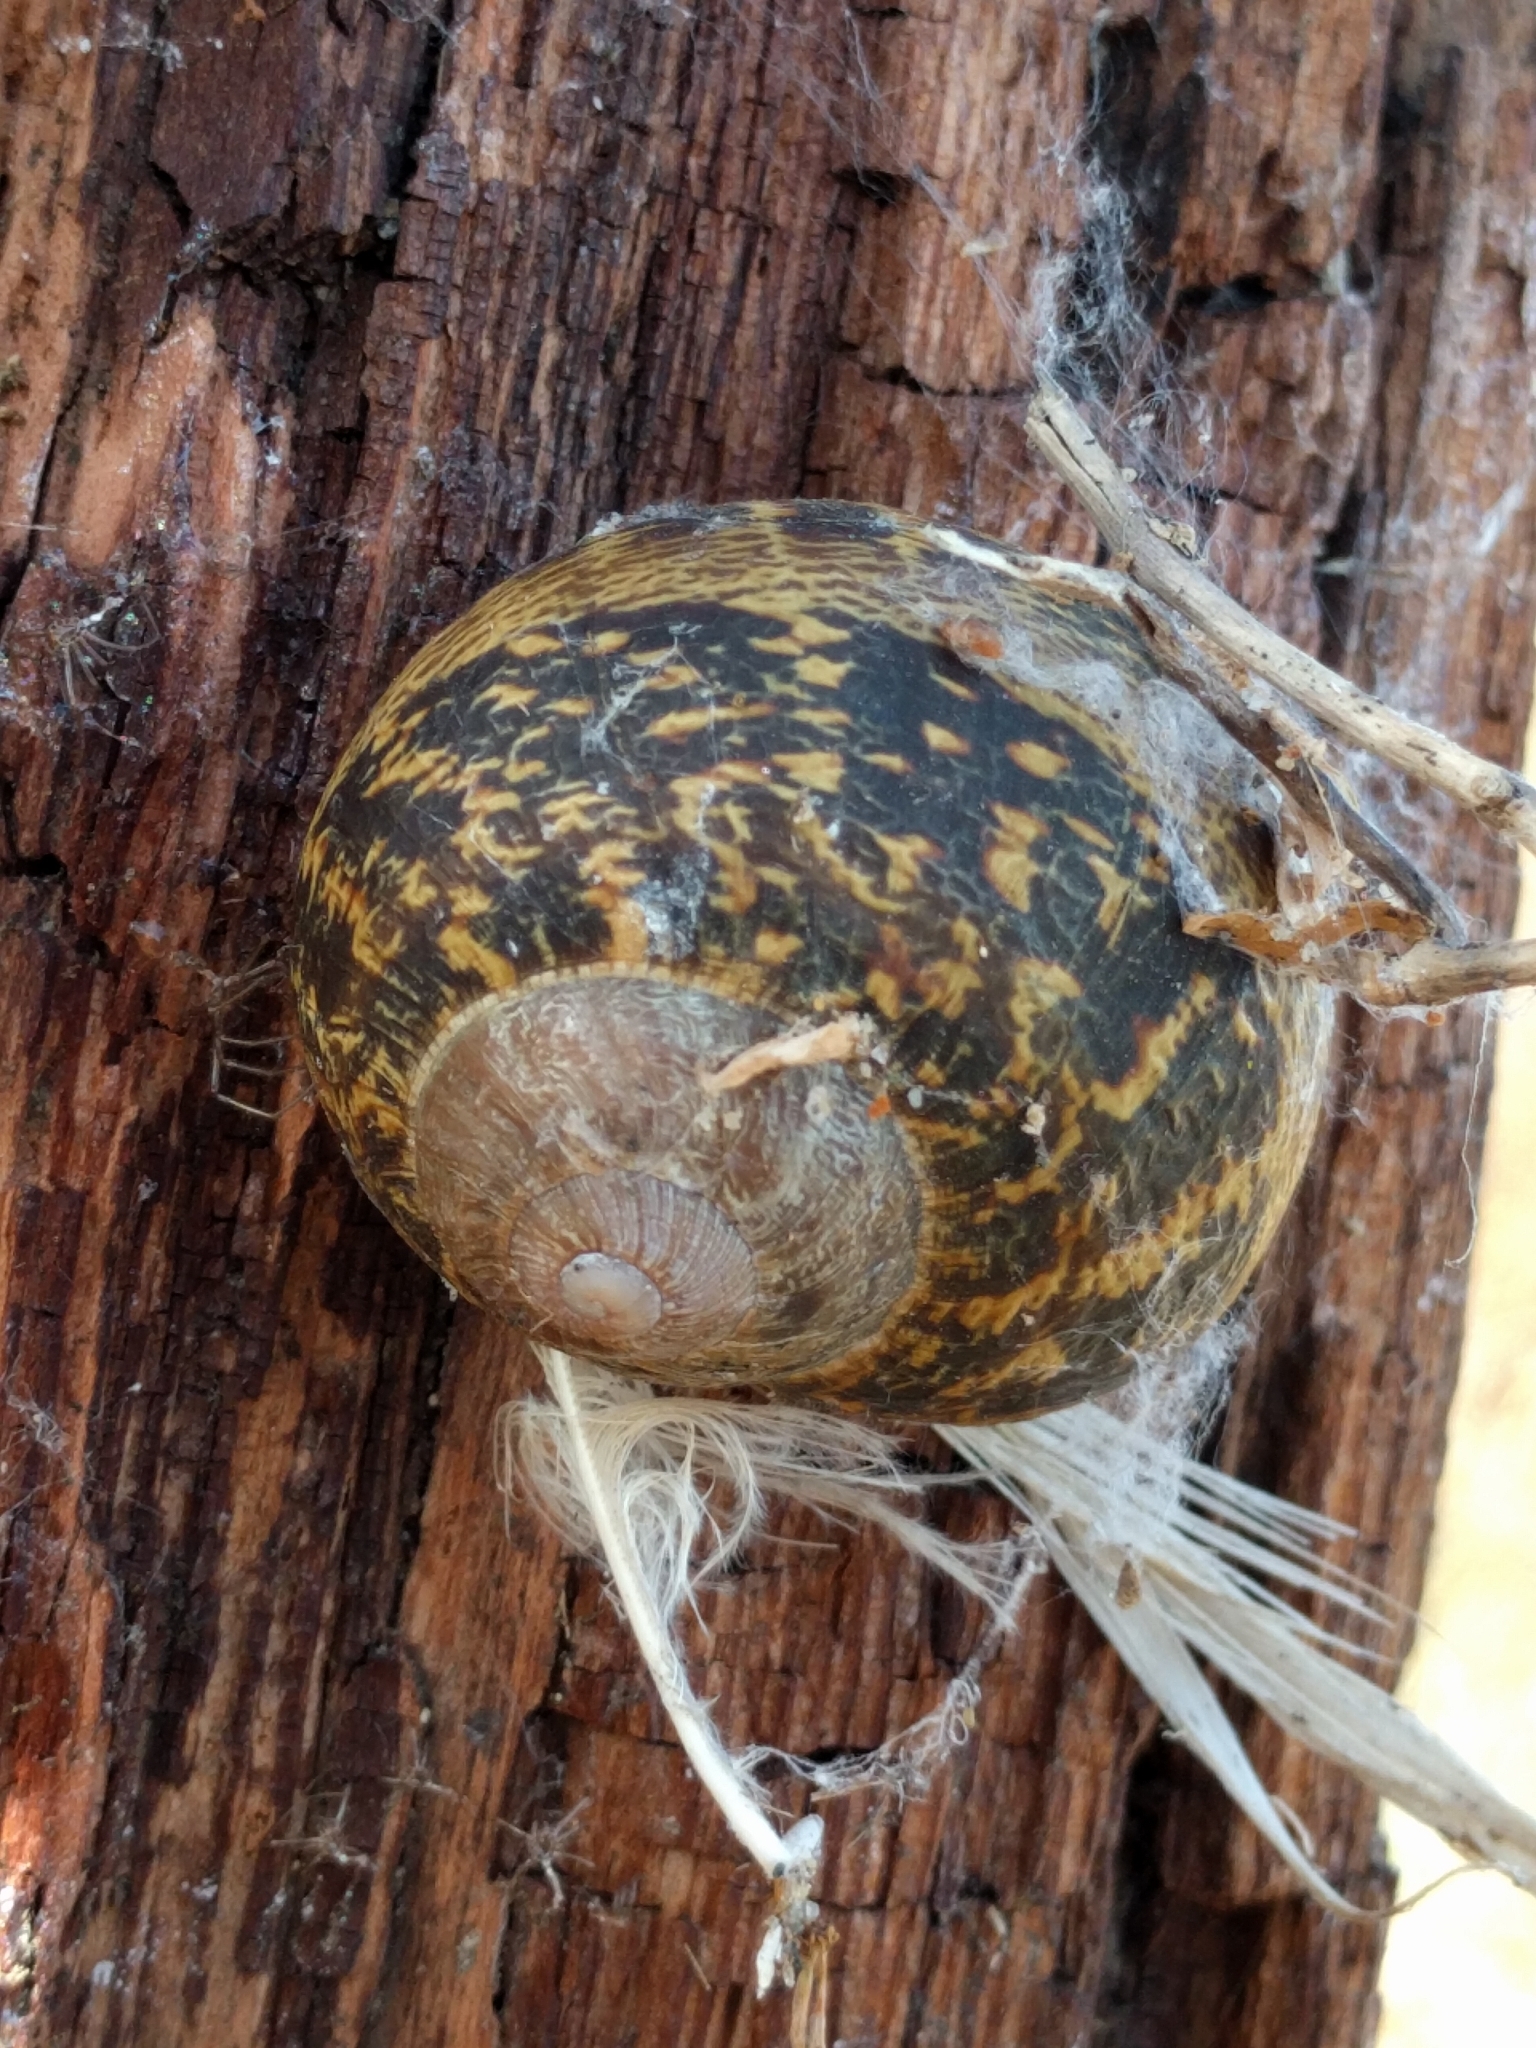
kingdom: Animalia
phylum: Mollusca
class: Gastropoda
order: Stylommatophora
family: Helicidae
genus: Cornu
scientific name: Cornu aspersum
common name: Brown garden snail
